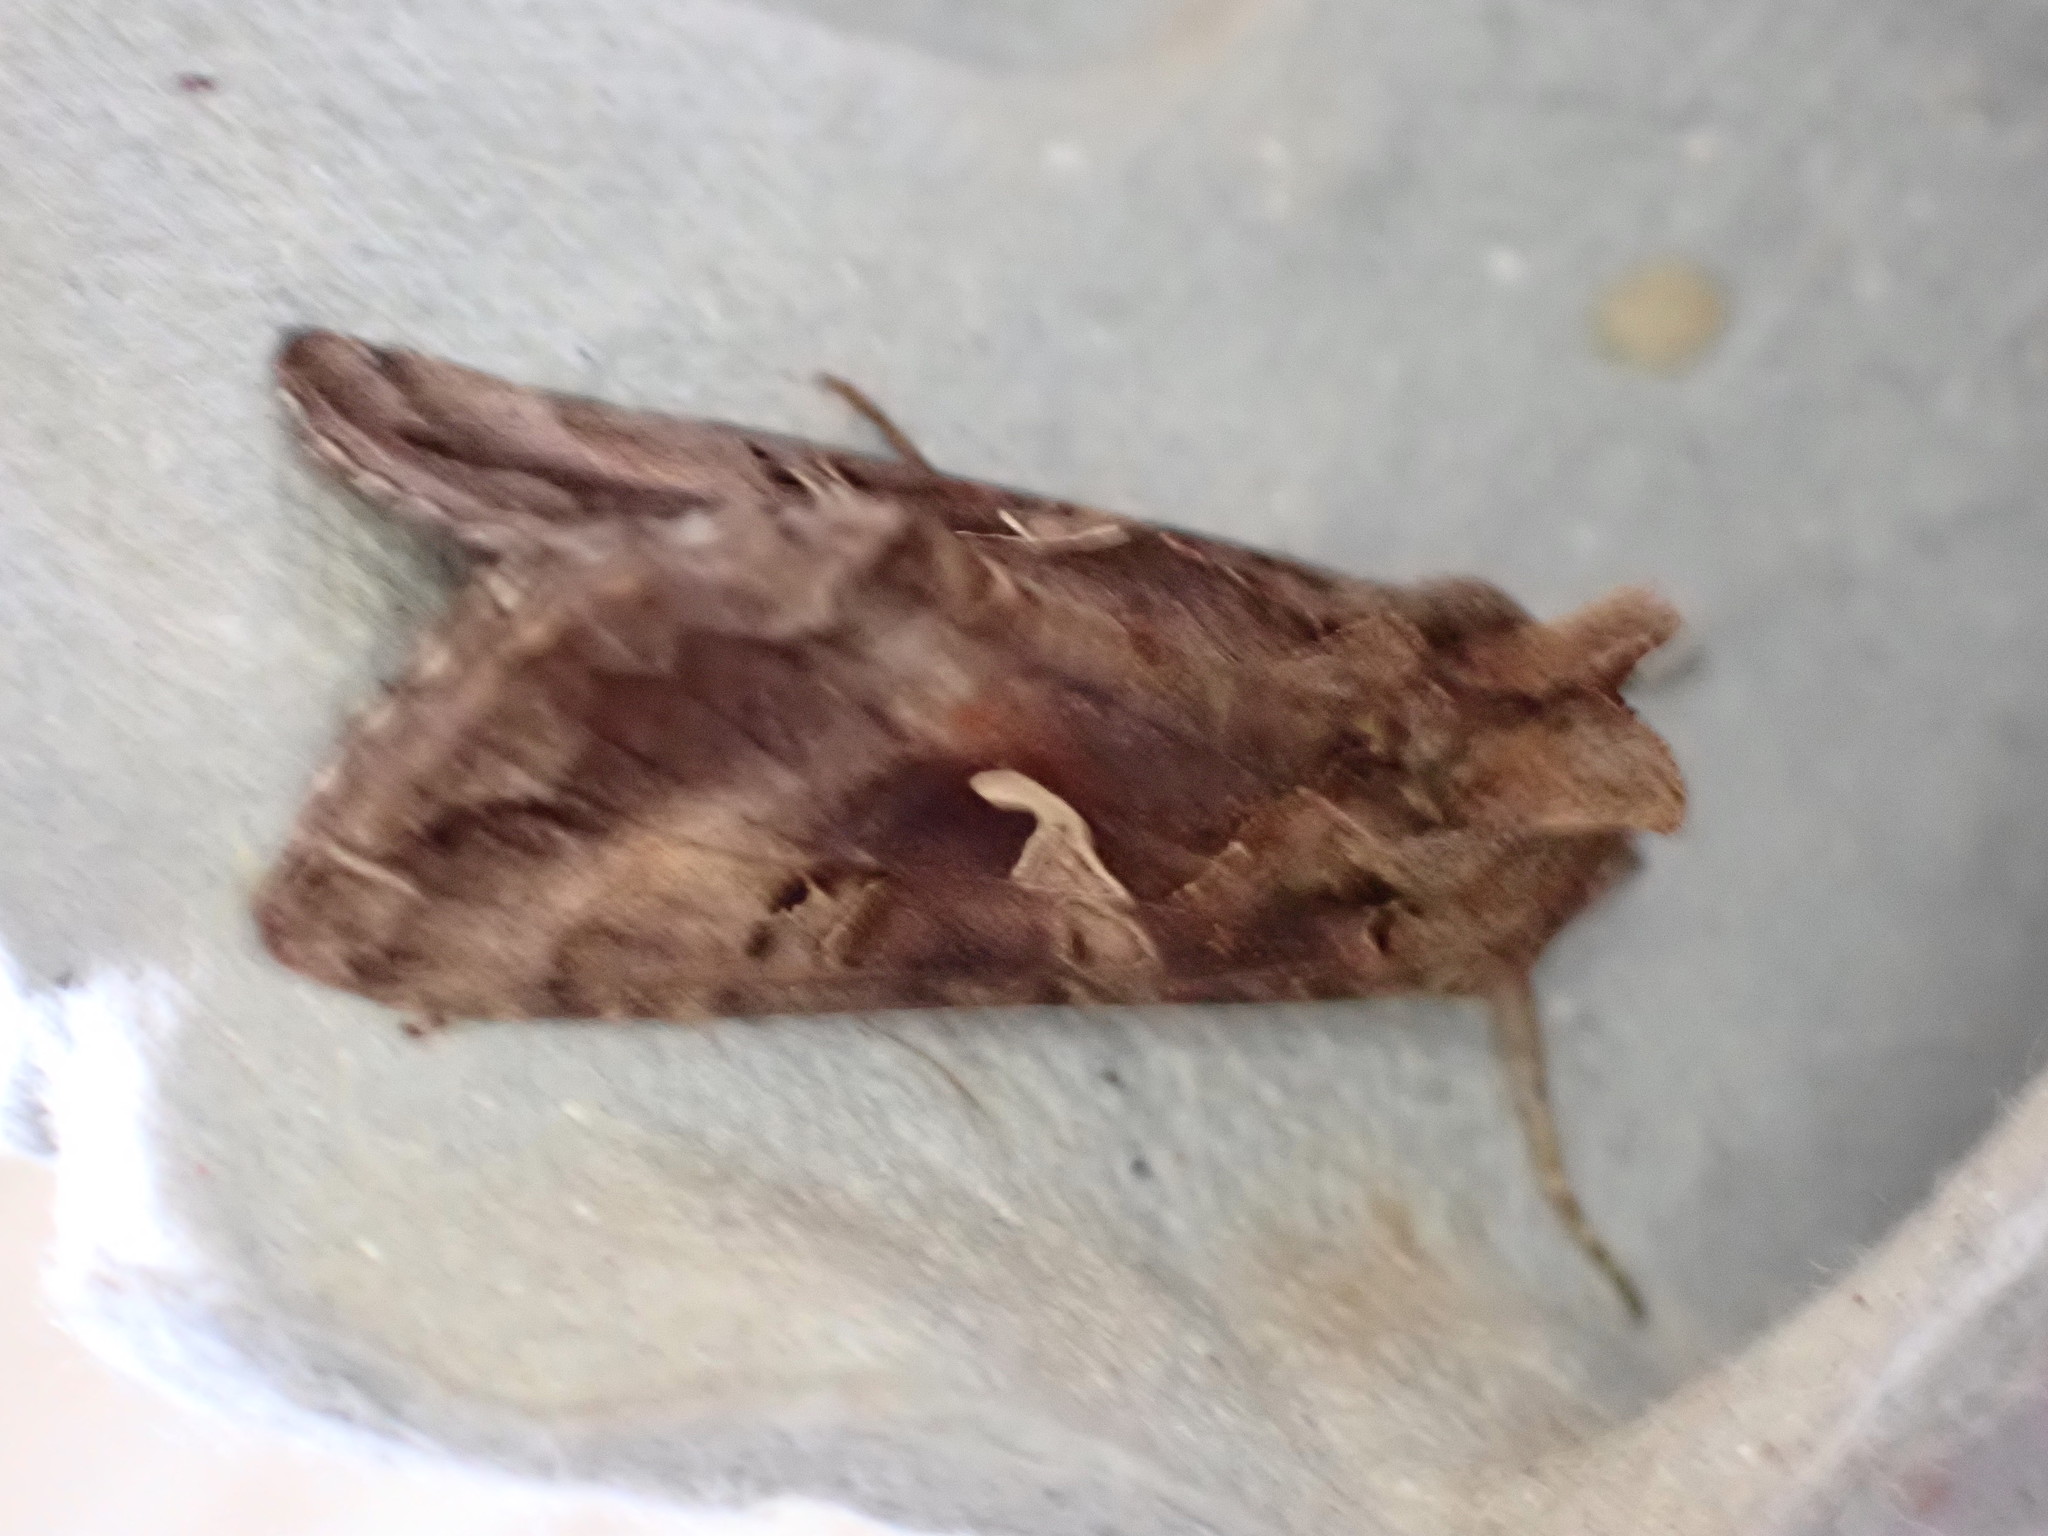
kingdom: Animalia
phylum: Arthropoda
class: Insecta
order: Lepidoptera
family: Noctuidae
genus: Autographa
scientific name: Autographa gamma
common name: Silver y
